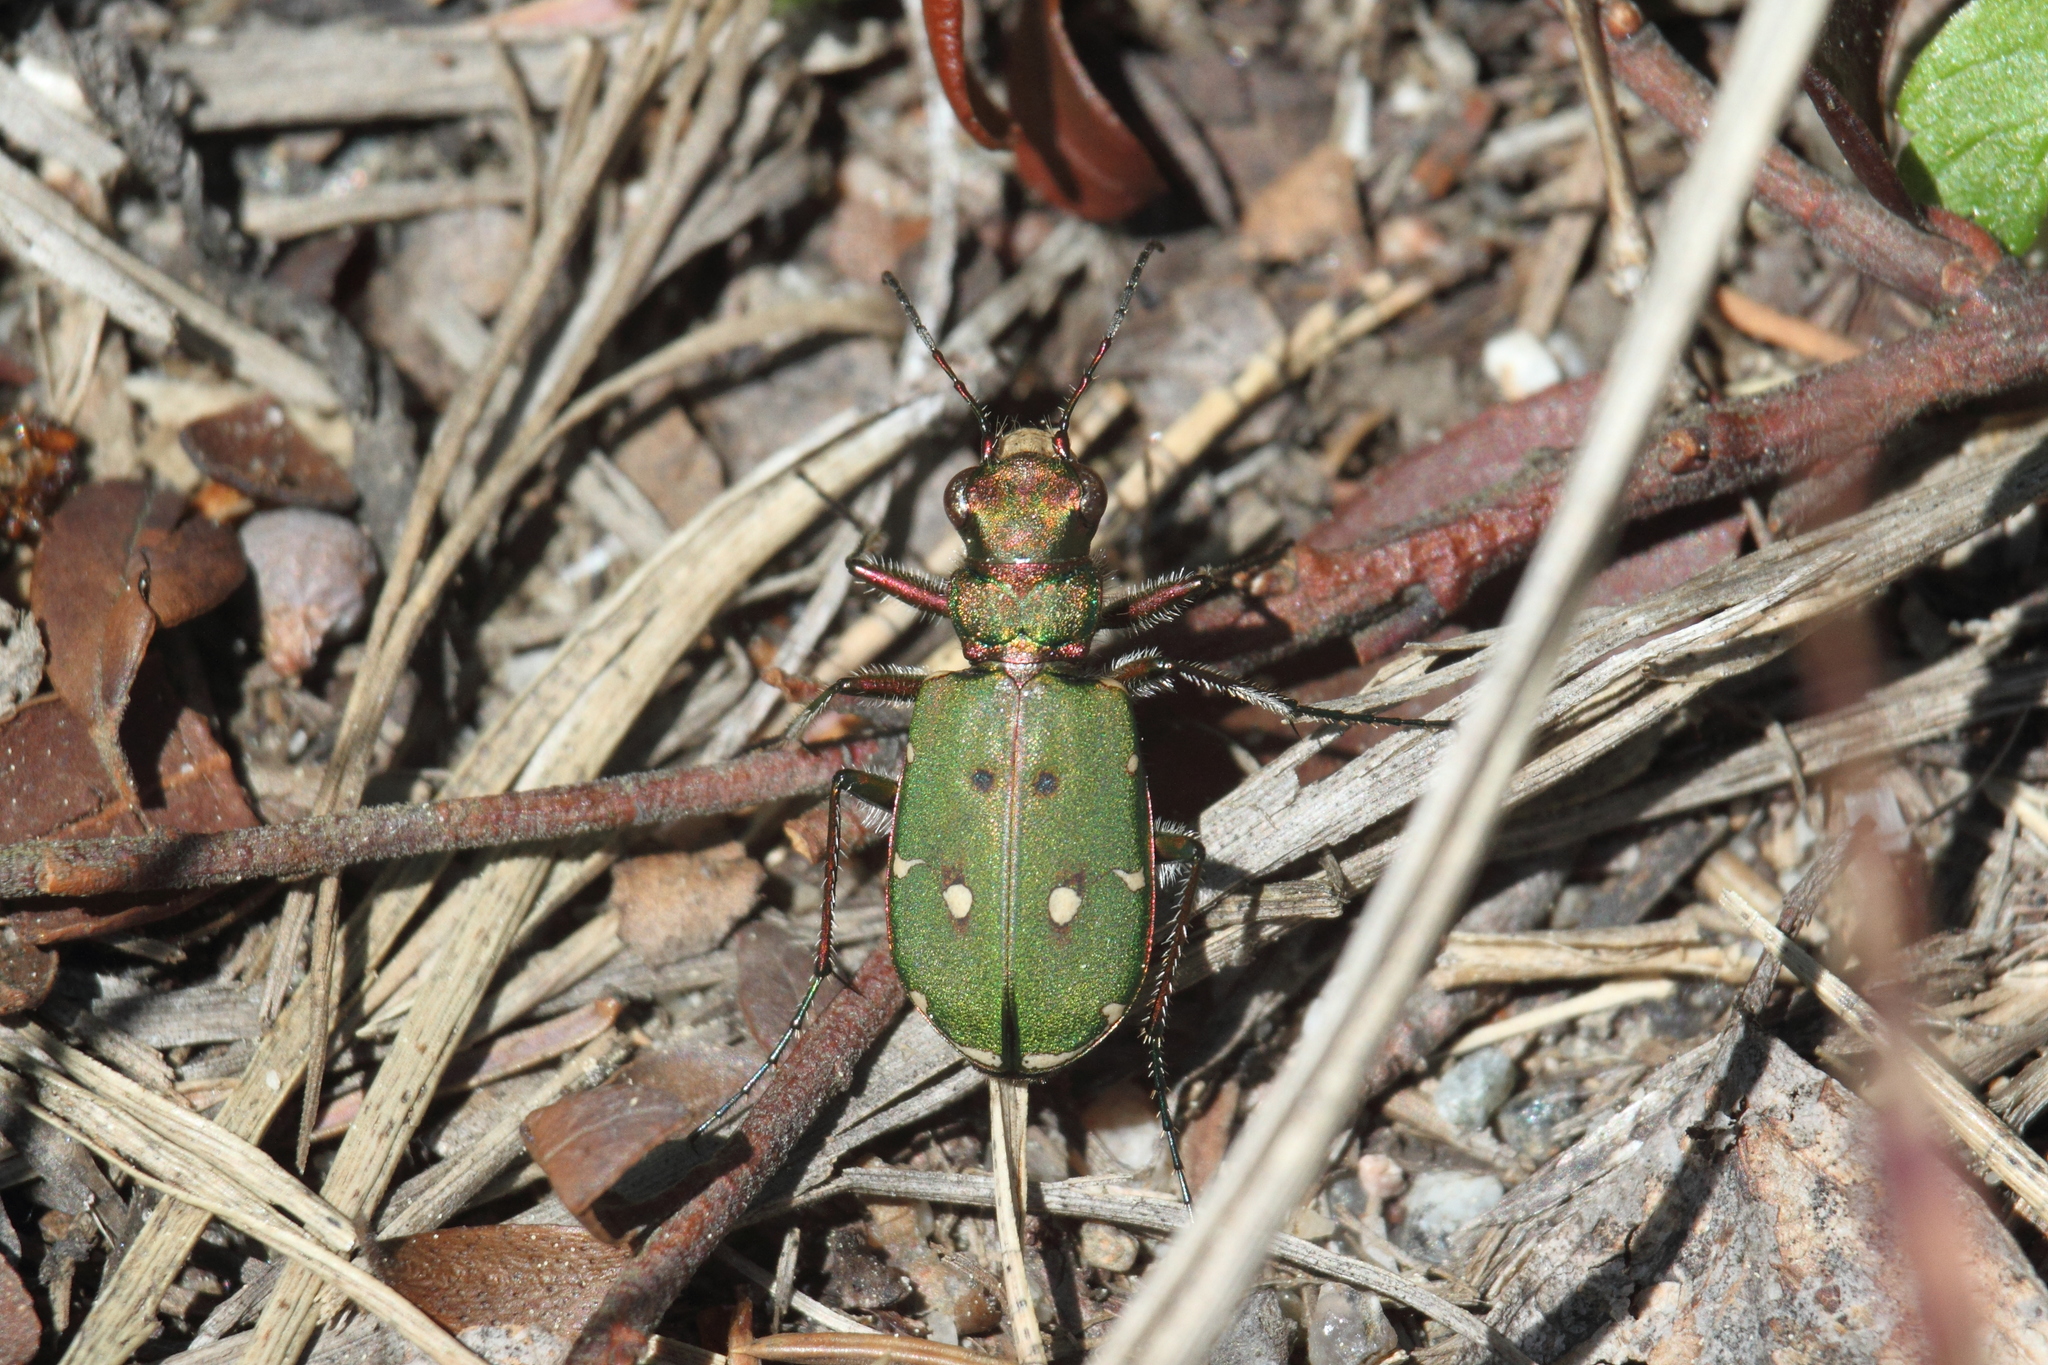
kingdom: Animalia
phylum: Arthropoda
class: Insecta
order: Coleoptera
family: Carabidae
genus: Cicindela
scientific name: Cicindela campestris
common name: Common tiger beetle
